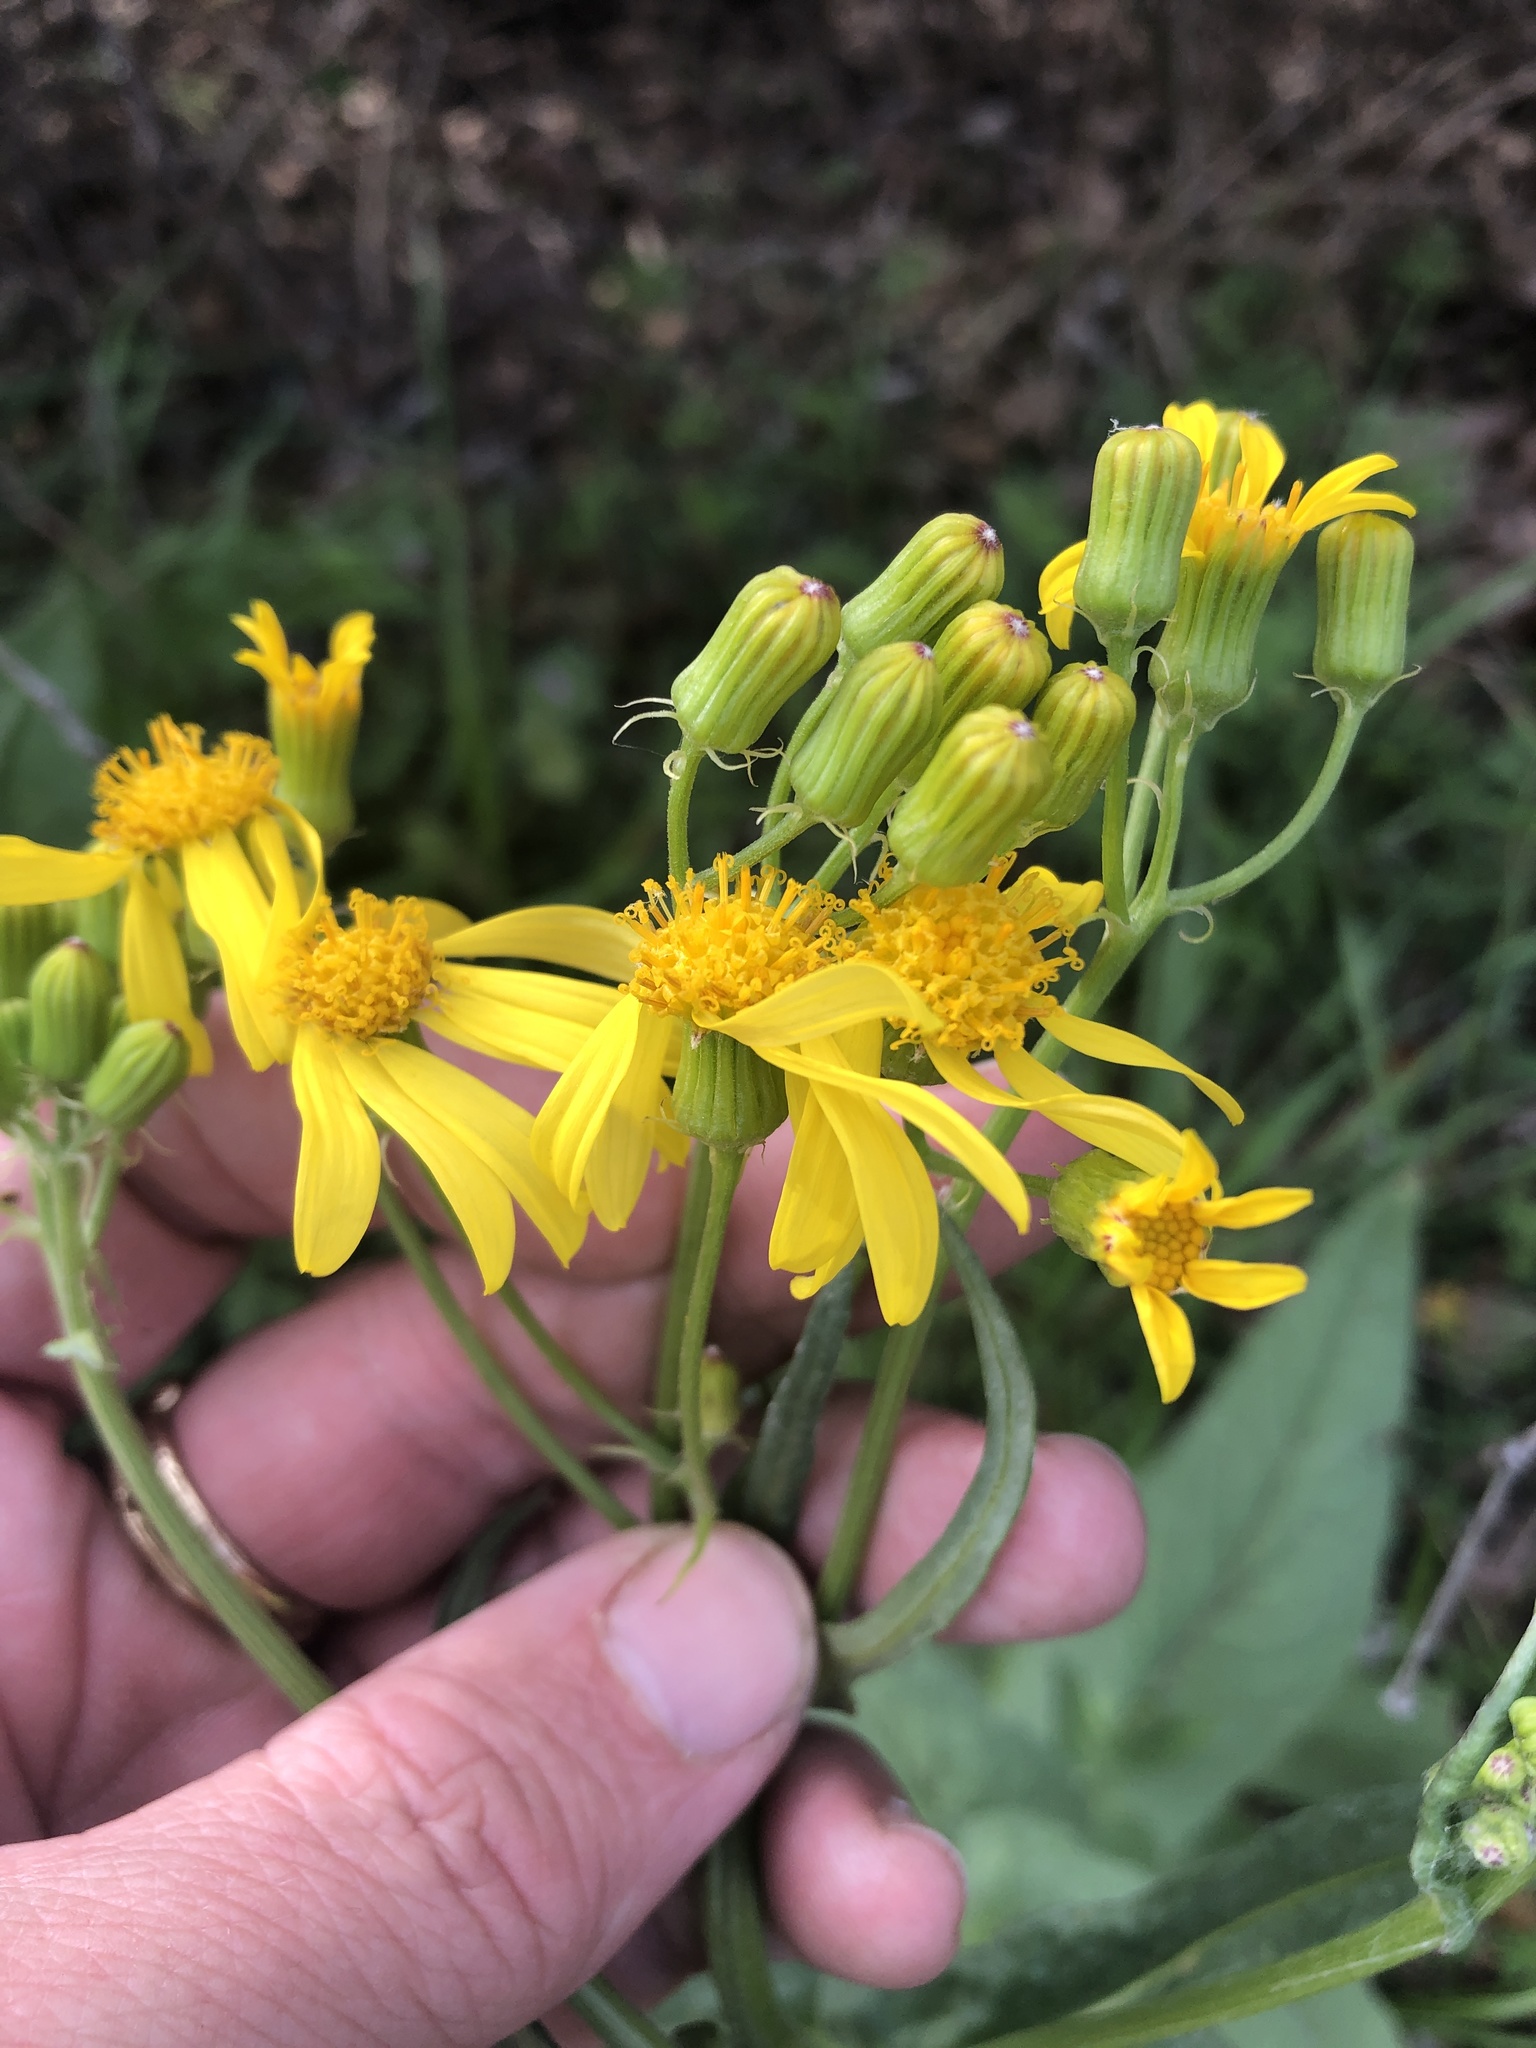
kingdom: Plantae
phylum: Tracheophyta
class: Magnoliopsida
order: Asterales
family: Asteraceae
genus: Senecio
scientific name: Senecio ampullaceus
